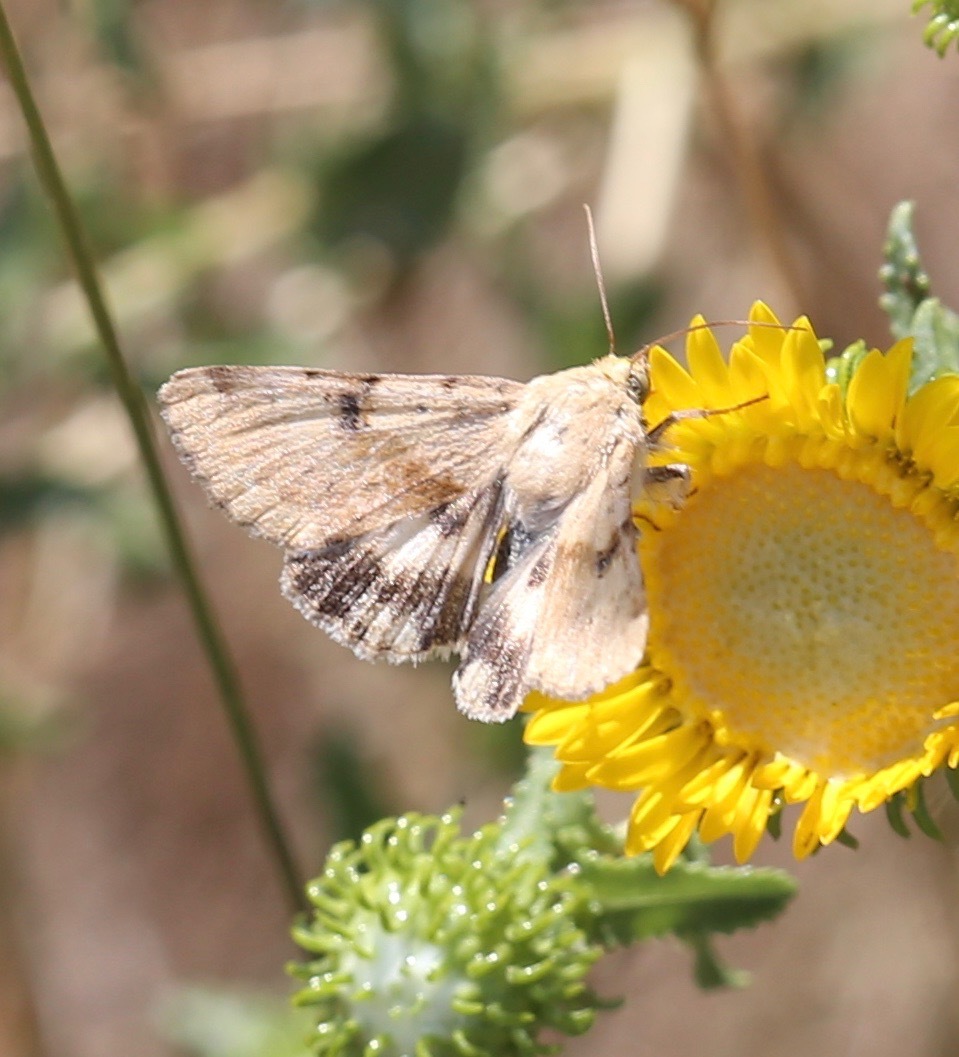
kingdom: Animalia
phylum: Arthropoda
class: Insecta
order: Lepidoptera
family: Noctuidae
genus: Heliothis
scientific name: Heliothis phloxiphaga
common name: Darker spotted straw moth
